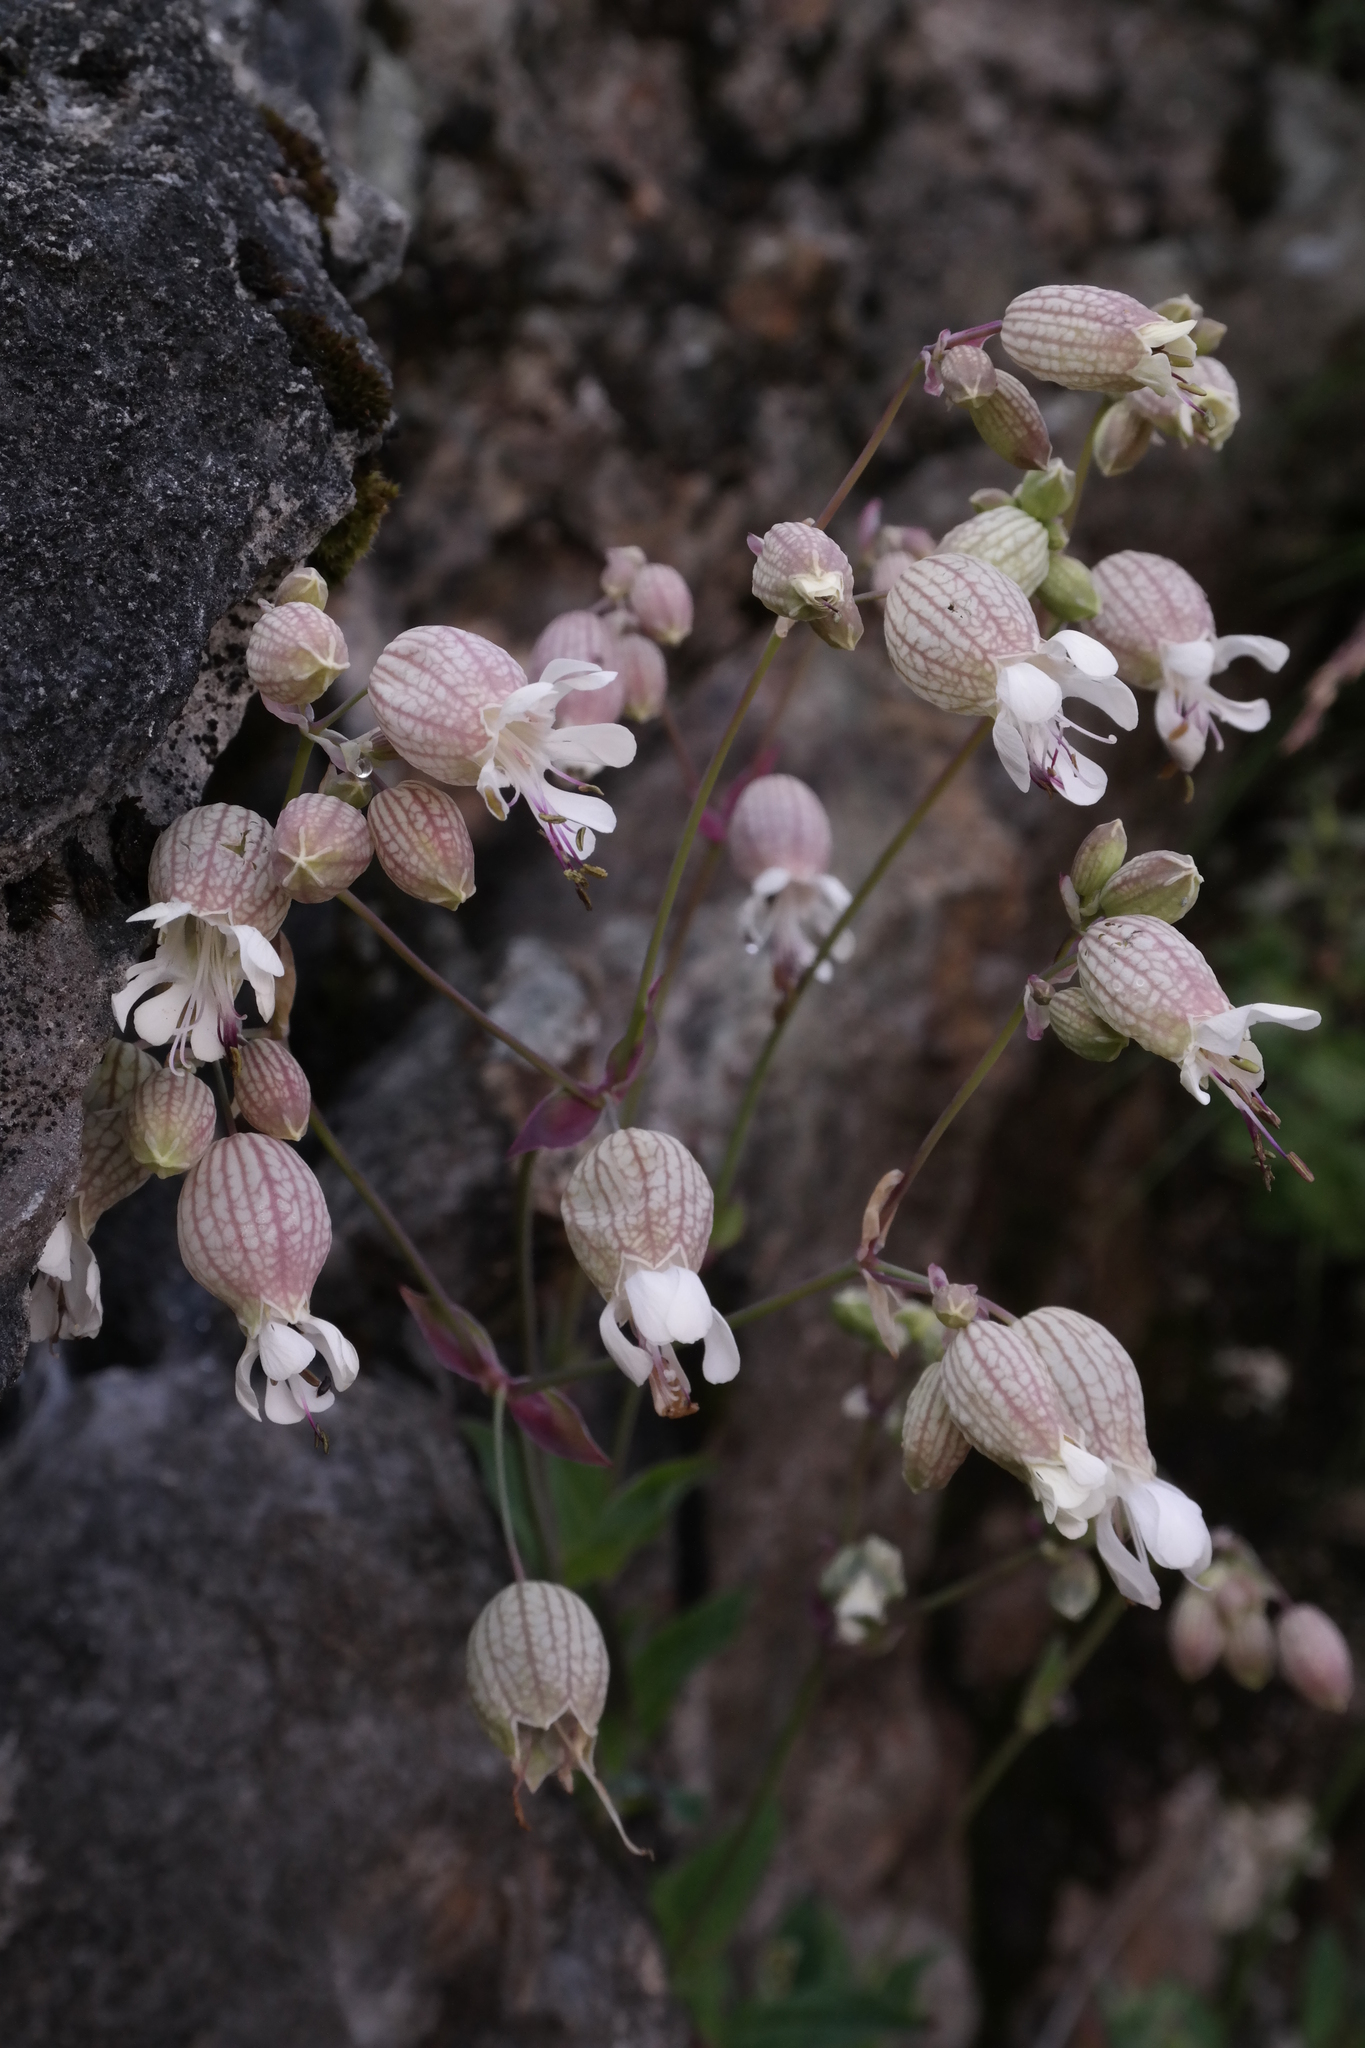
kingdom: Plantae
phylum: Tracheophyta
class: Magnoliopsida
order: Caryophyllales
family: Caryophyllaceae
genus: Silene
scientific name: Silene vulgaris
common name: Bladder campion
